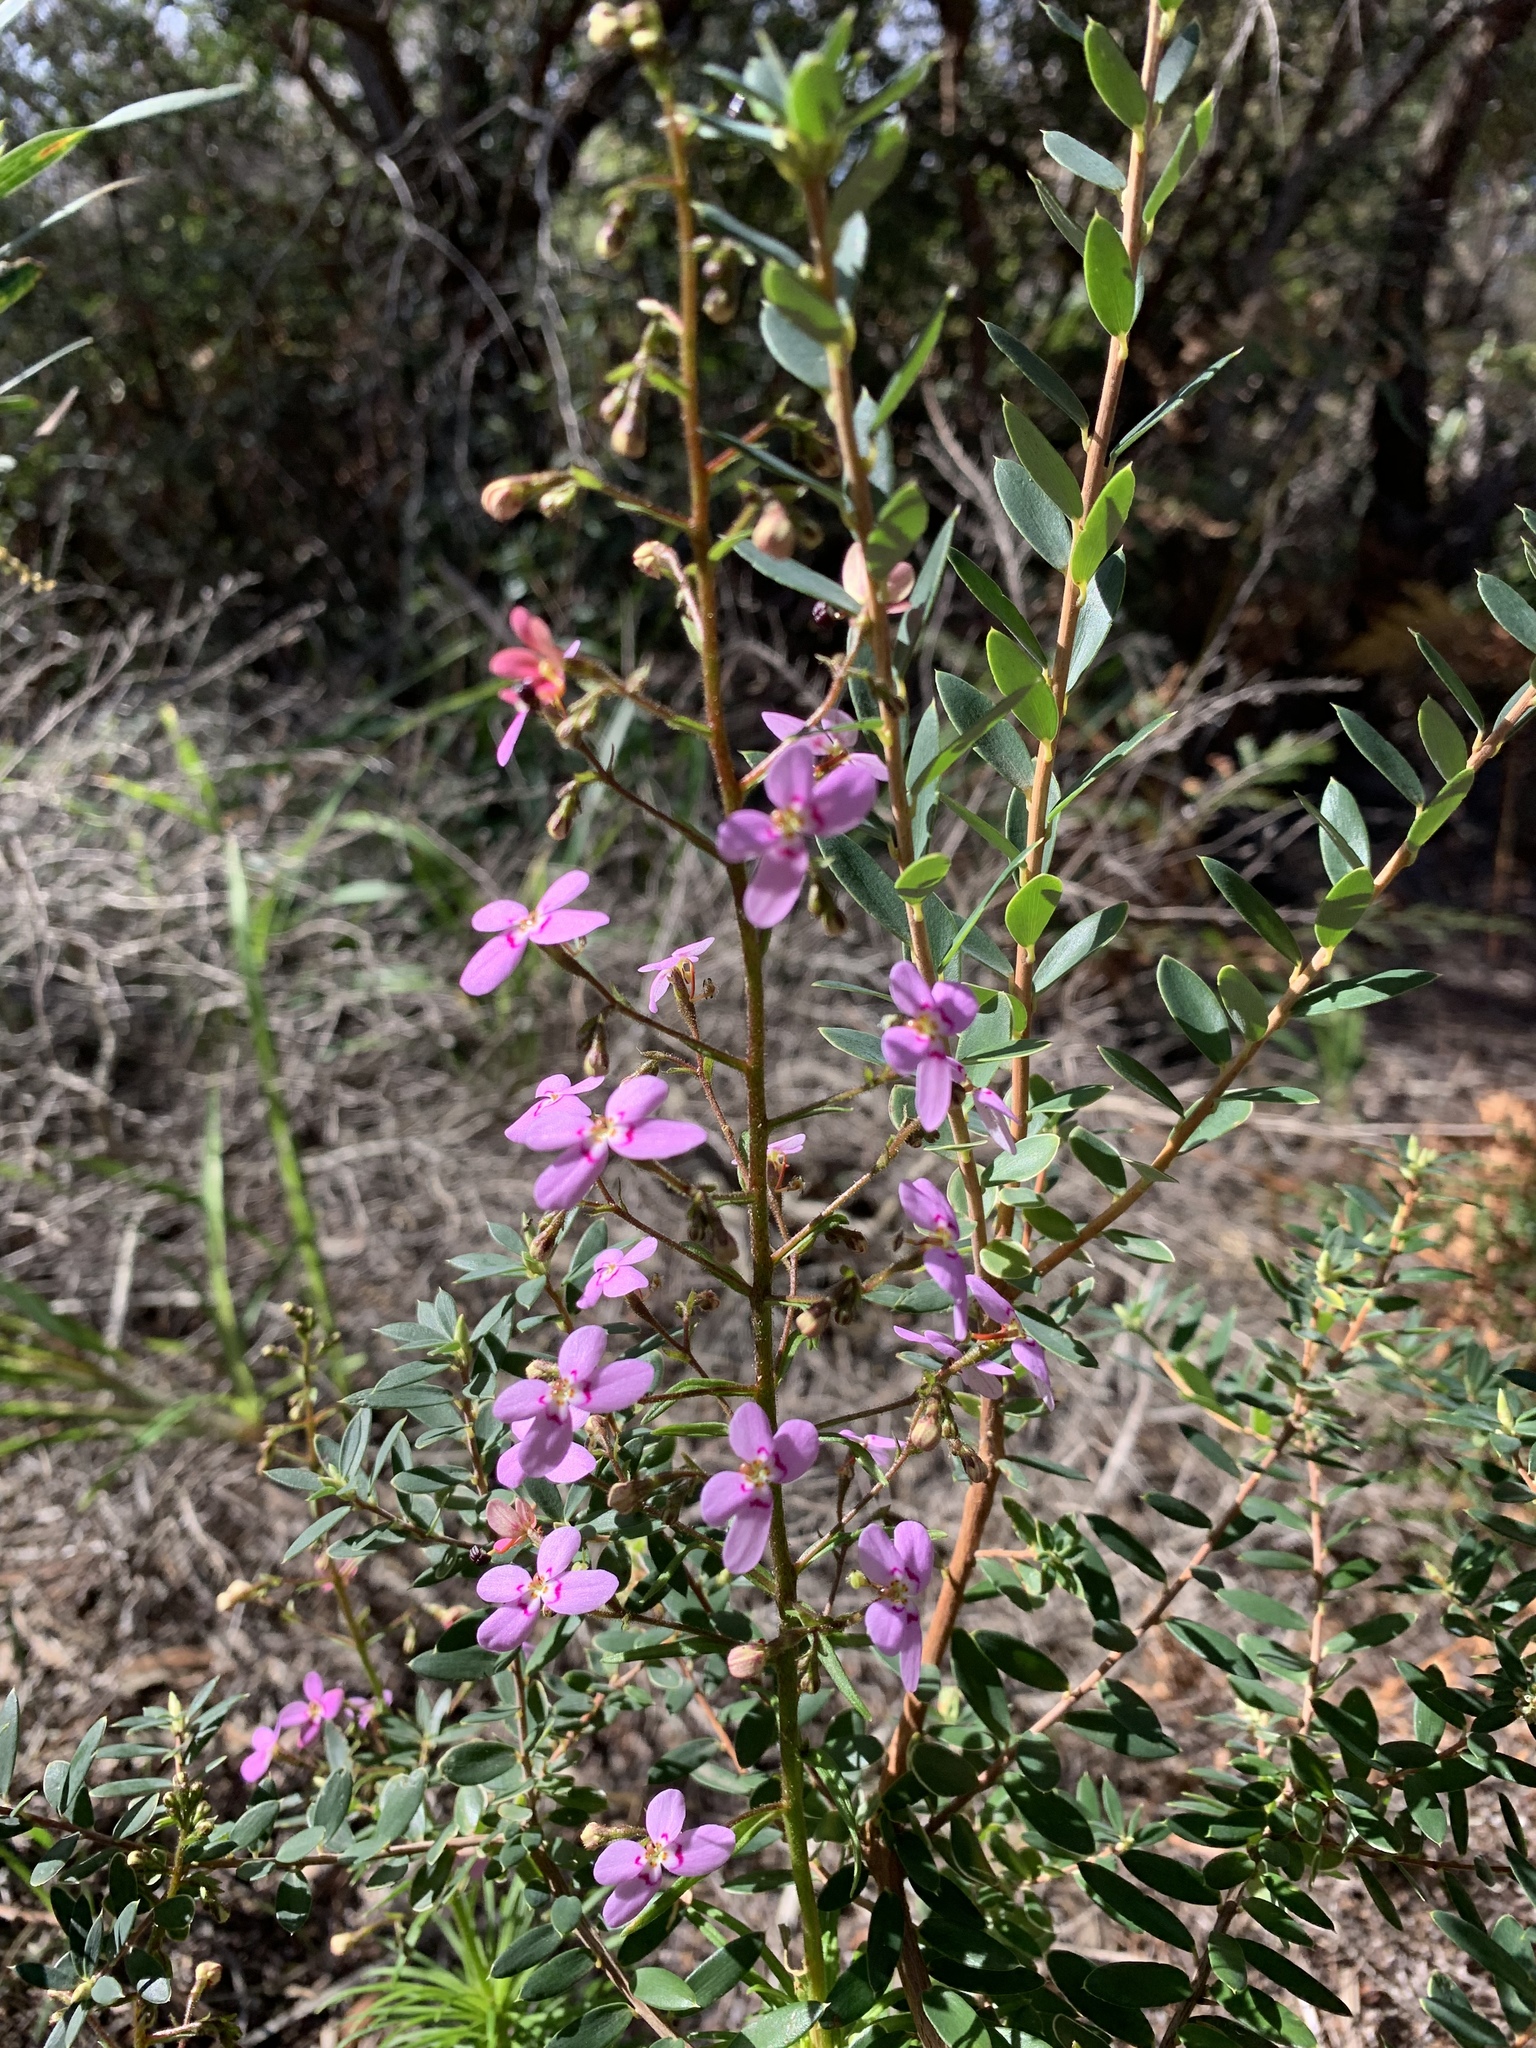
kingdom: Plantae
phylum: Tracheophyta
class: Magnoliopsida
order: Asterales
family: Stylidiaceae
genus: Stylidium
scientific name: Stylidium laricifolium
